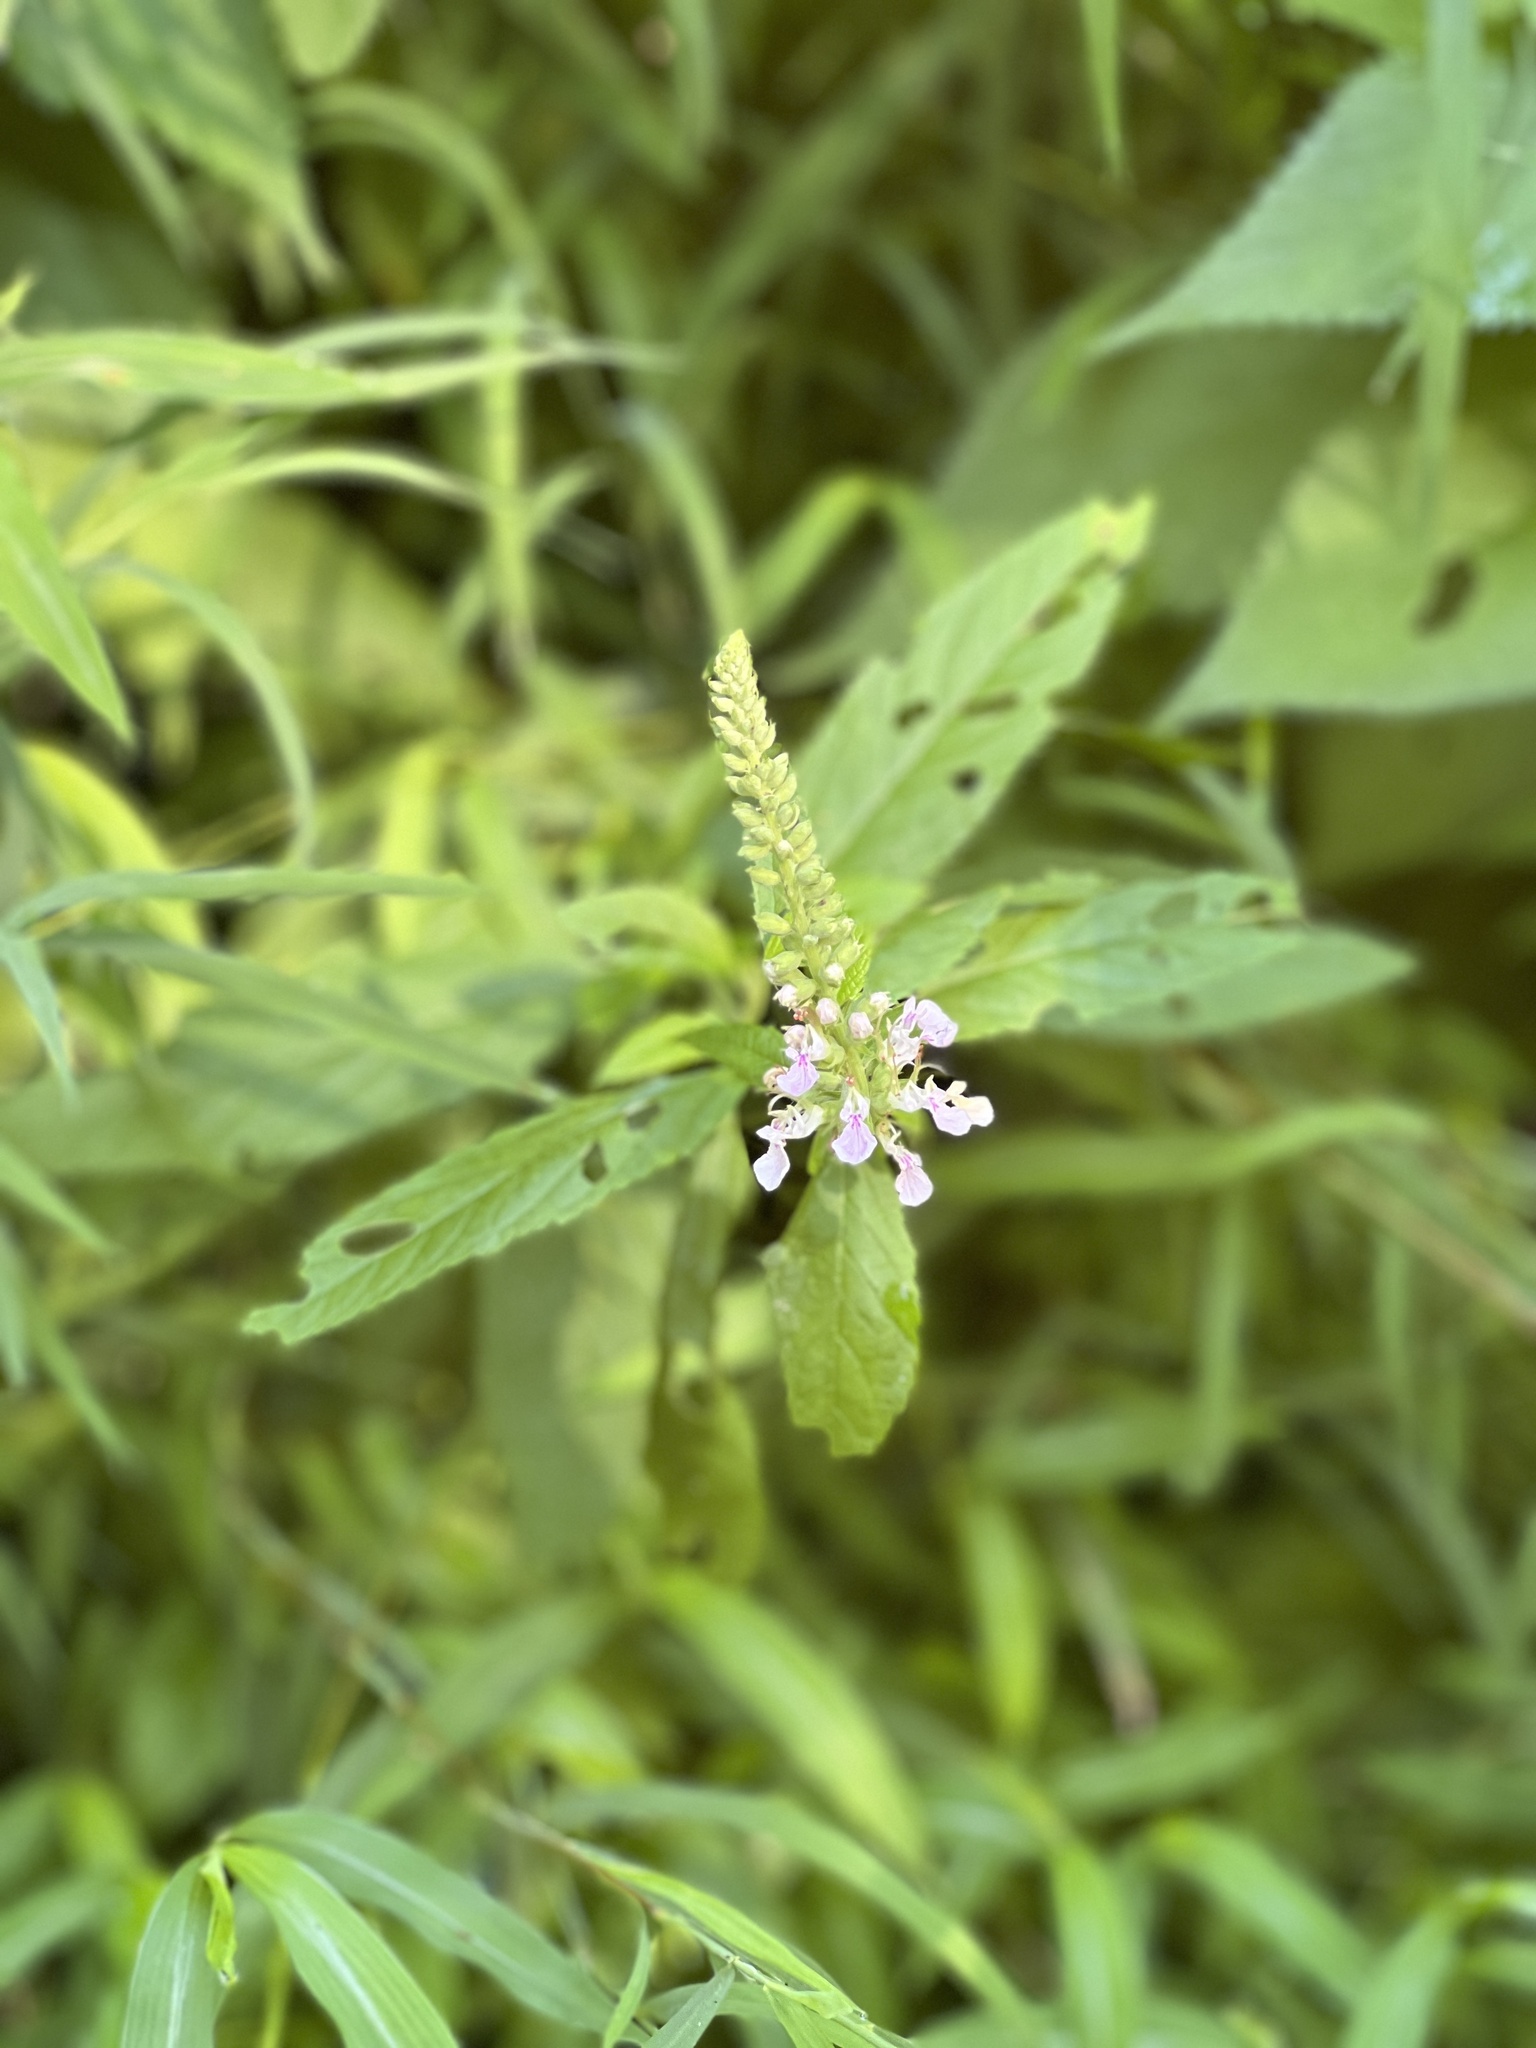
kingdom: Plantae
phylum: Tracheophyta
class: Magnoliopsida
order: Lamiales
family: Lamiaceae
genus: Teucrium
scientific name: Teucrium canadense
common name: American germander
